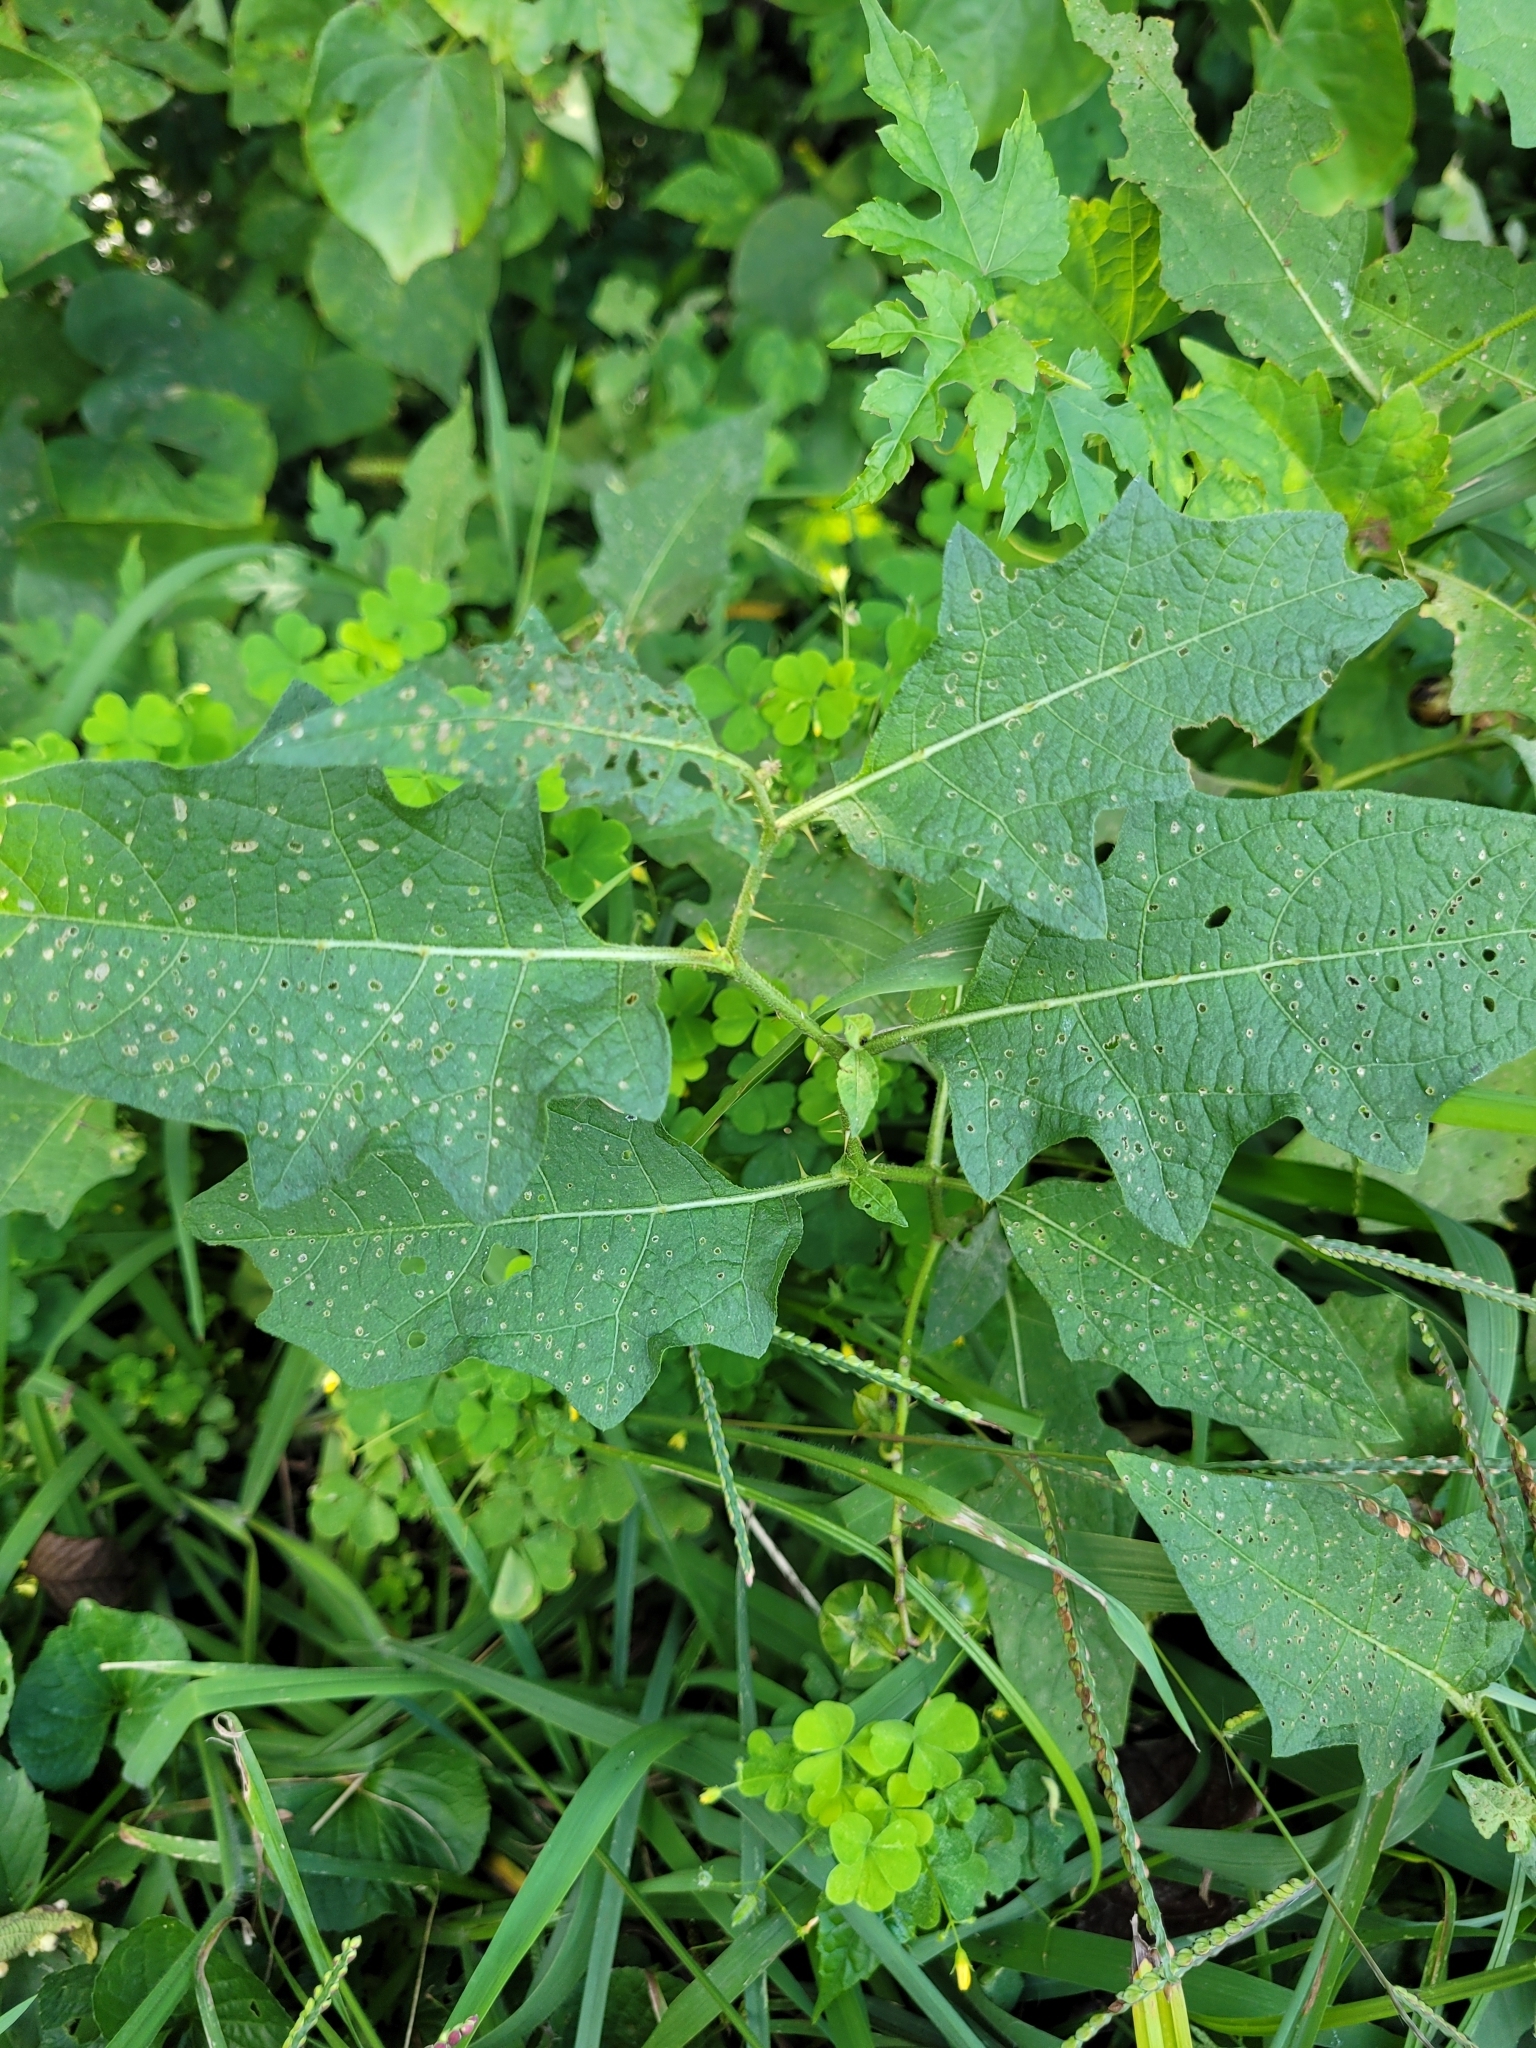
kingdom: Plantae
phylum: Tracheophyta
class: Magnoliopsida
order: Solanales
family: Solanaceae
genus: Solanum
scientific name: Solanum carolinense
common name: Horse-nettle
